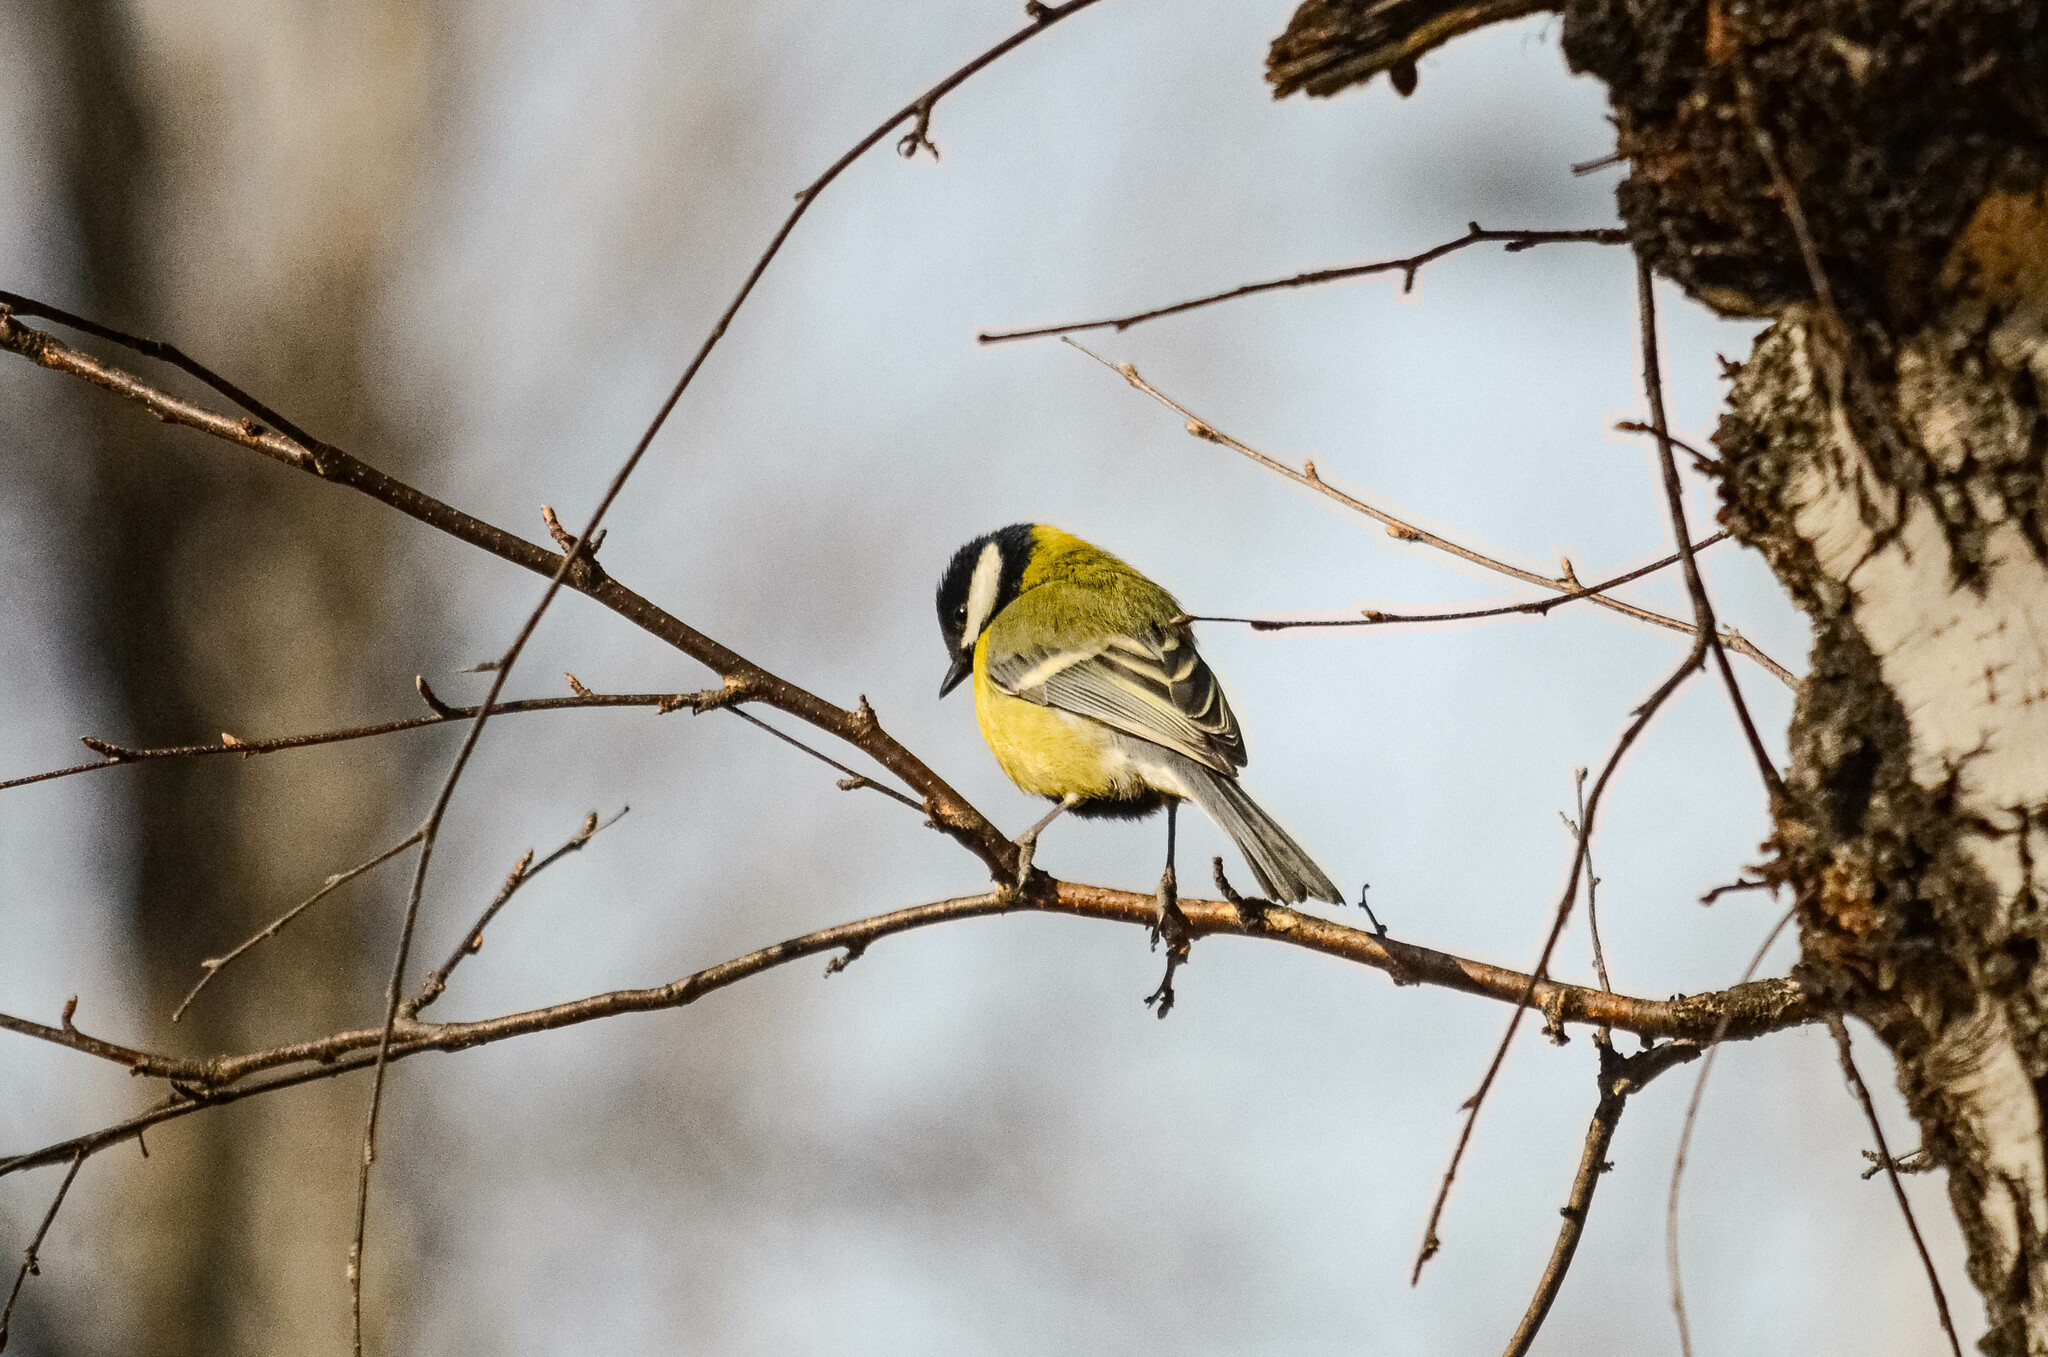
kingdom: Animalia
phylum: Chordata
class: Aves
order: Passeriformes
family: Paridae
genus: Parus
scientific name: Parus major
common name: Great tit
